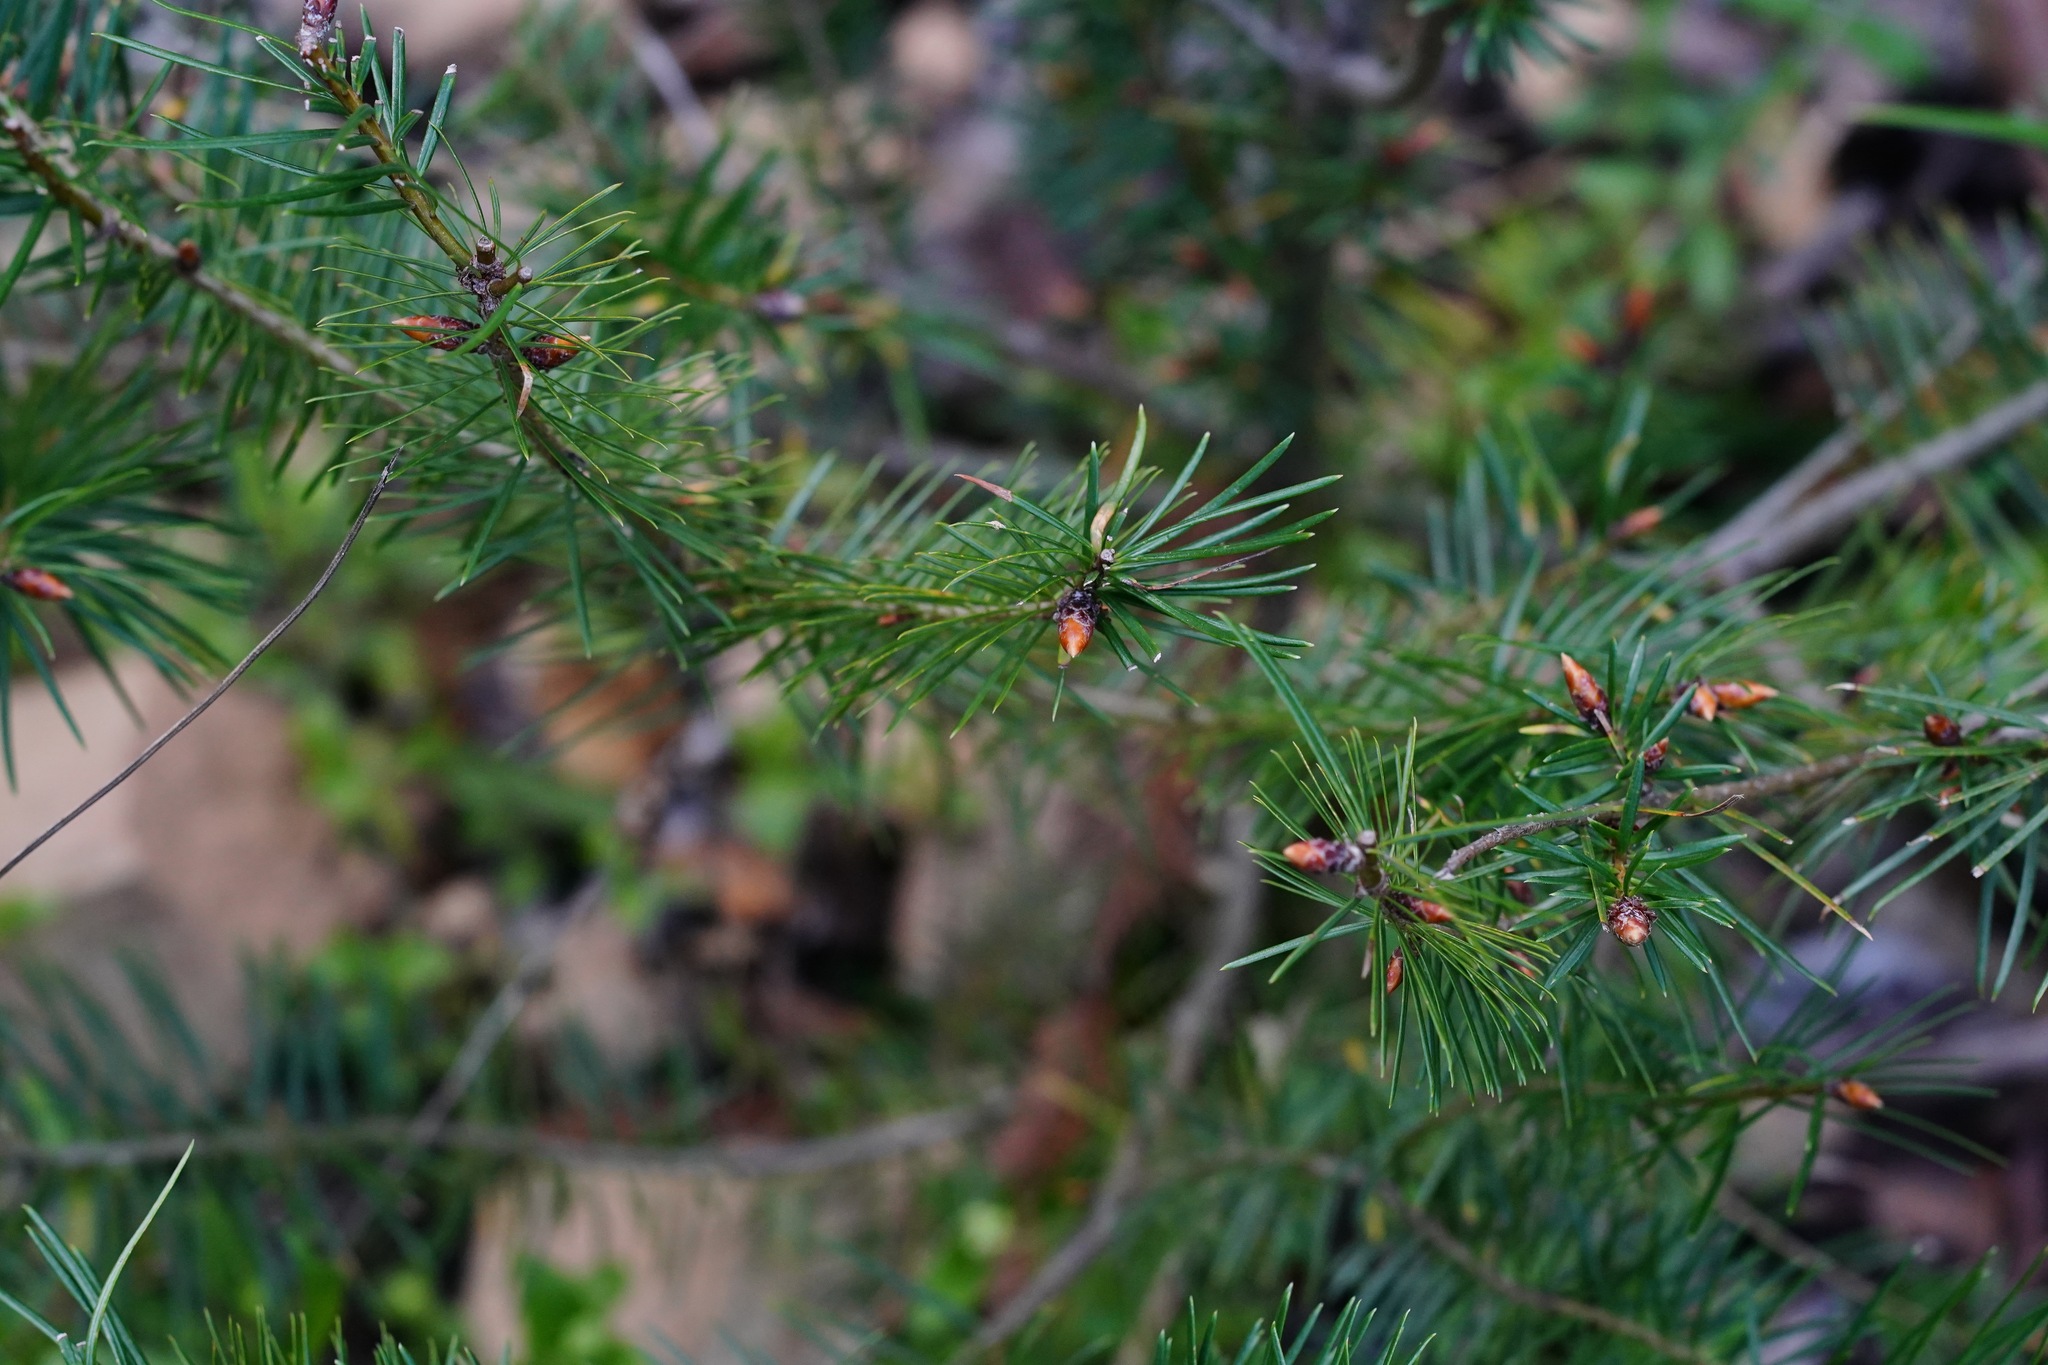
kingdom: Plantae
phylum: Tracheophyta
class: Pinopsida
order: Pinales
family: Pinaceae
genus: Pseudotsuga
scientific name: Pseudotsuga menziesii
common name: Douglas fir
